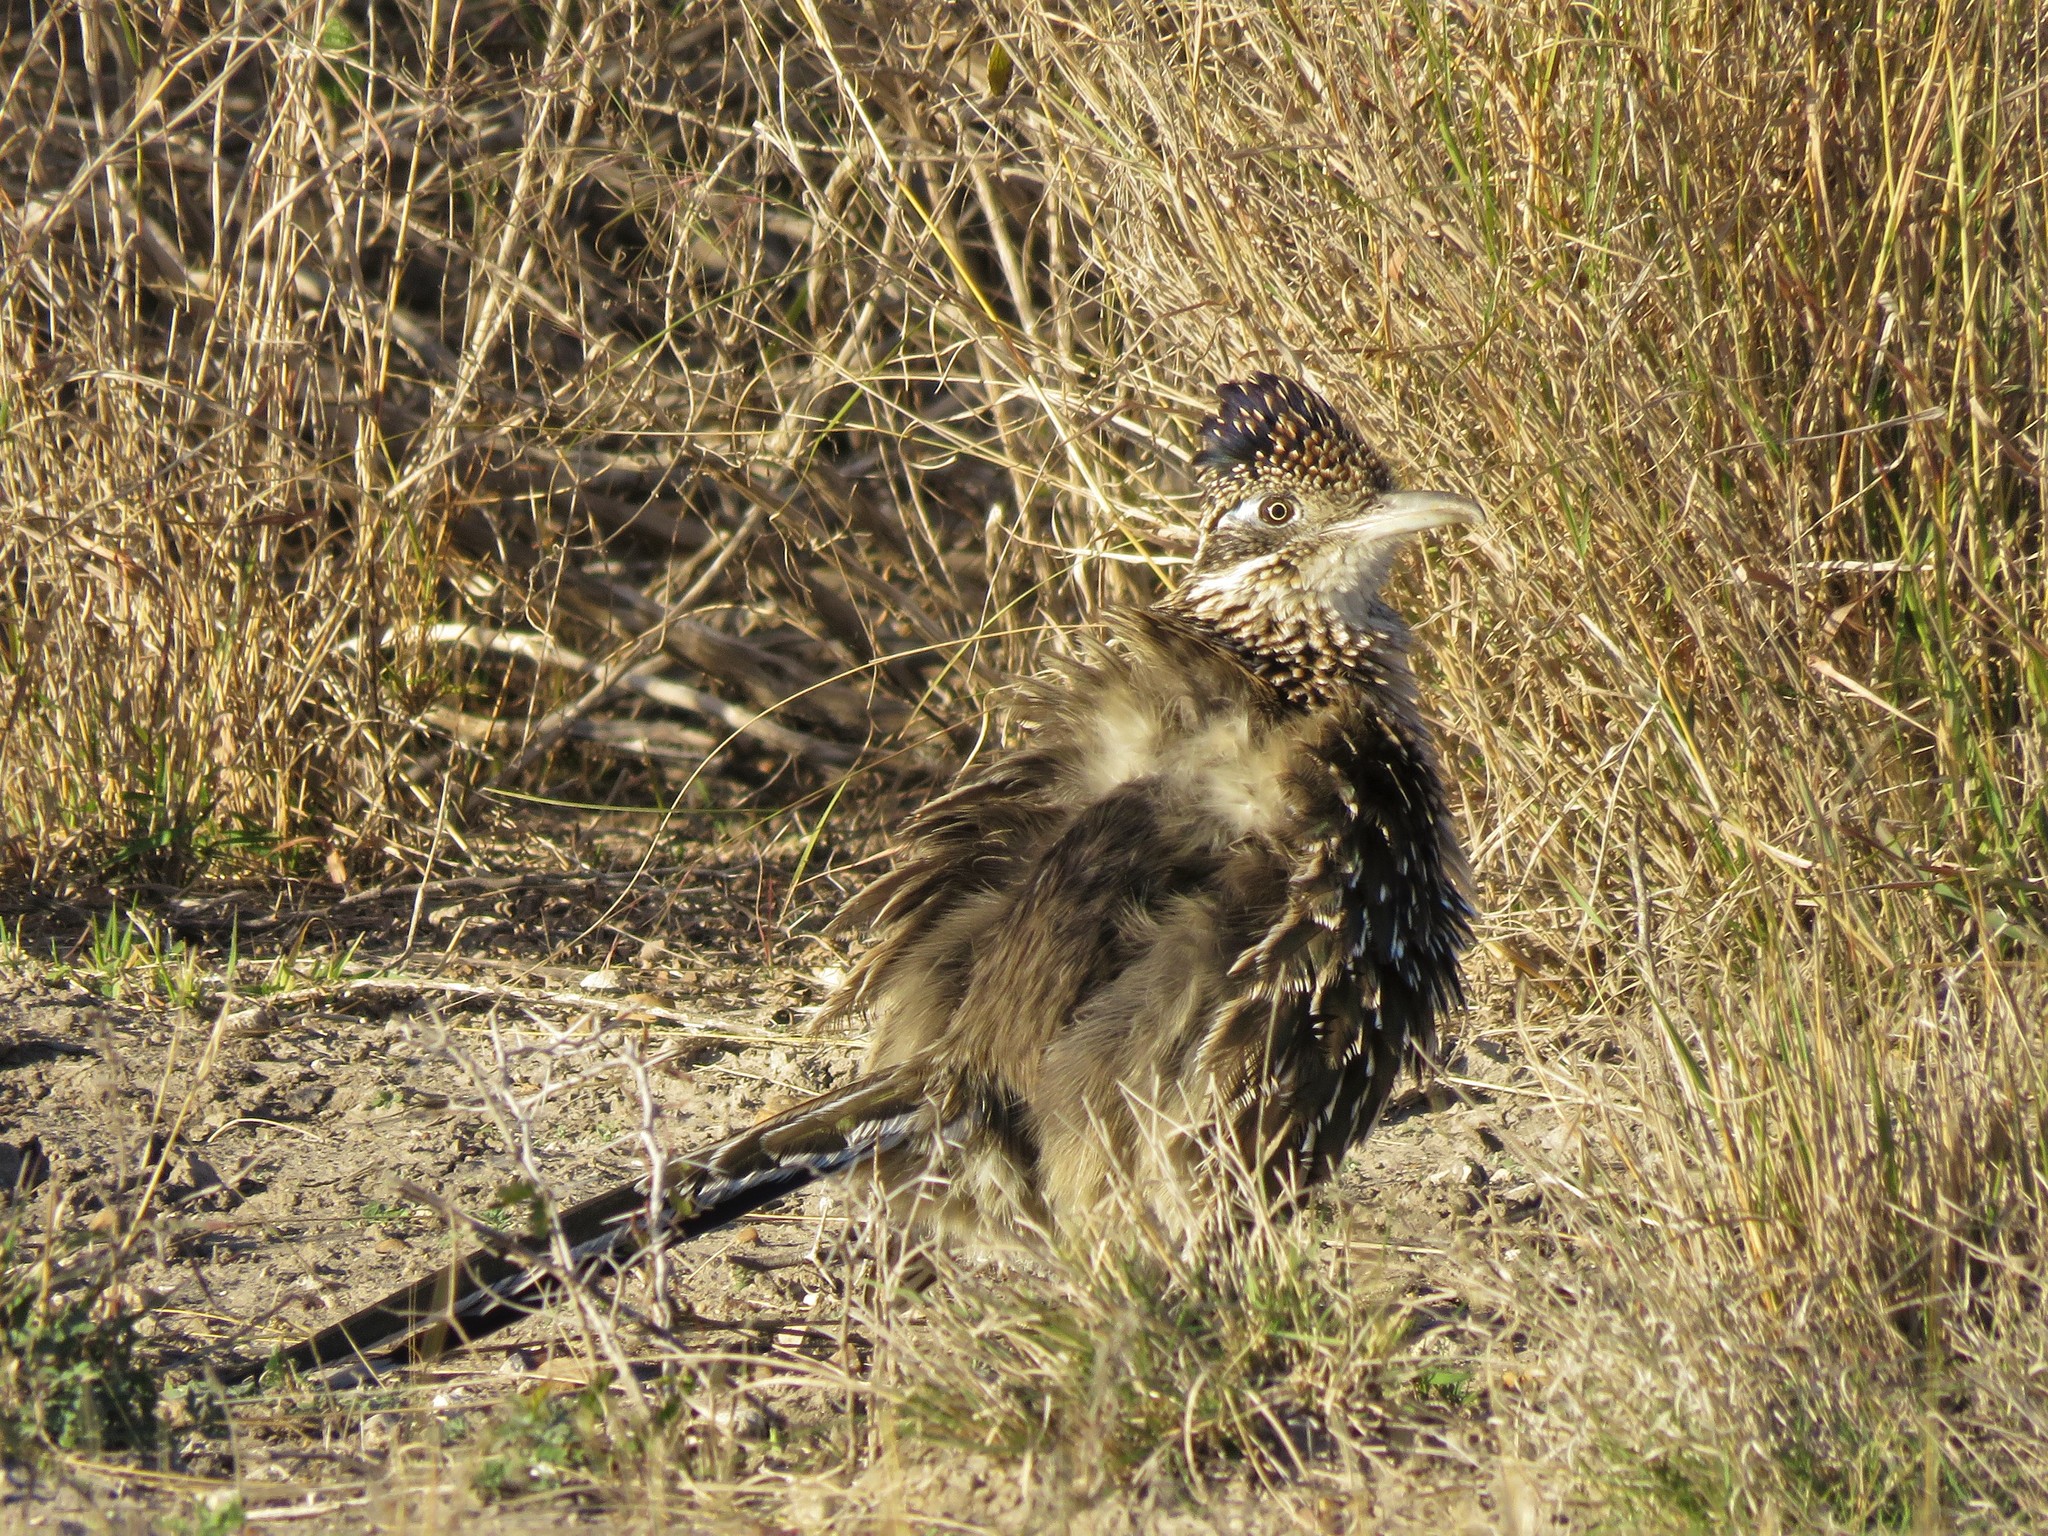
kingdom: Animalia
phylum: Chordata
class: Aves
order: Cuculiformes
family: Cuculidae
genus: Geococcyx
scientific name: Geococcyx californianus
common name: Greater roadrunner
